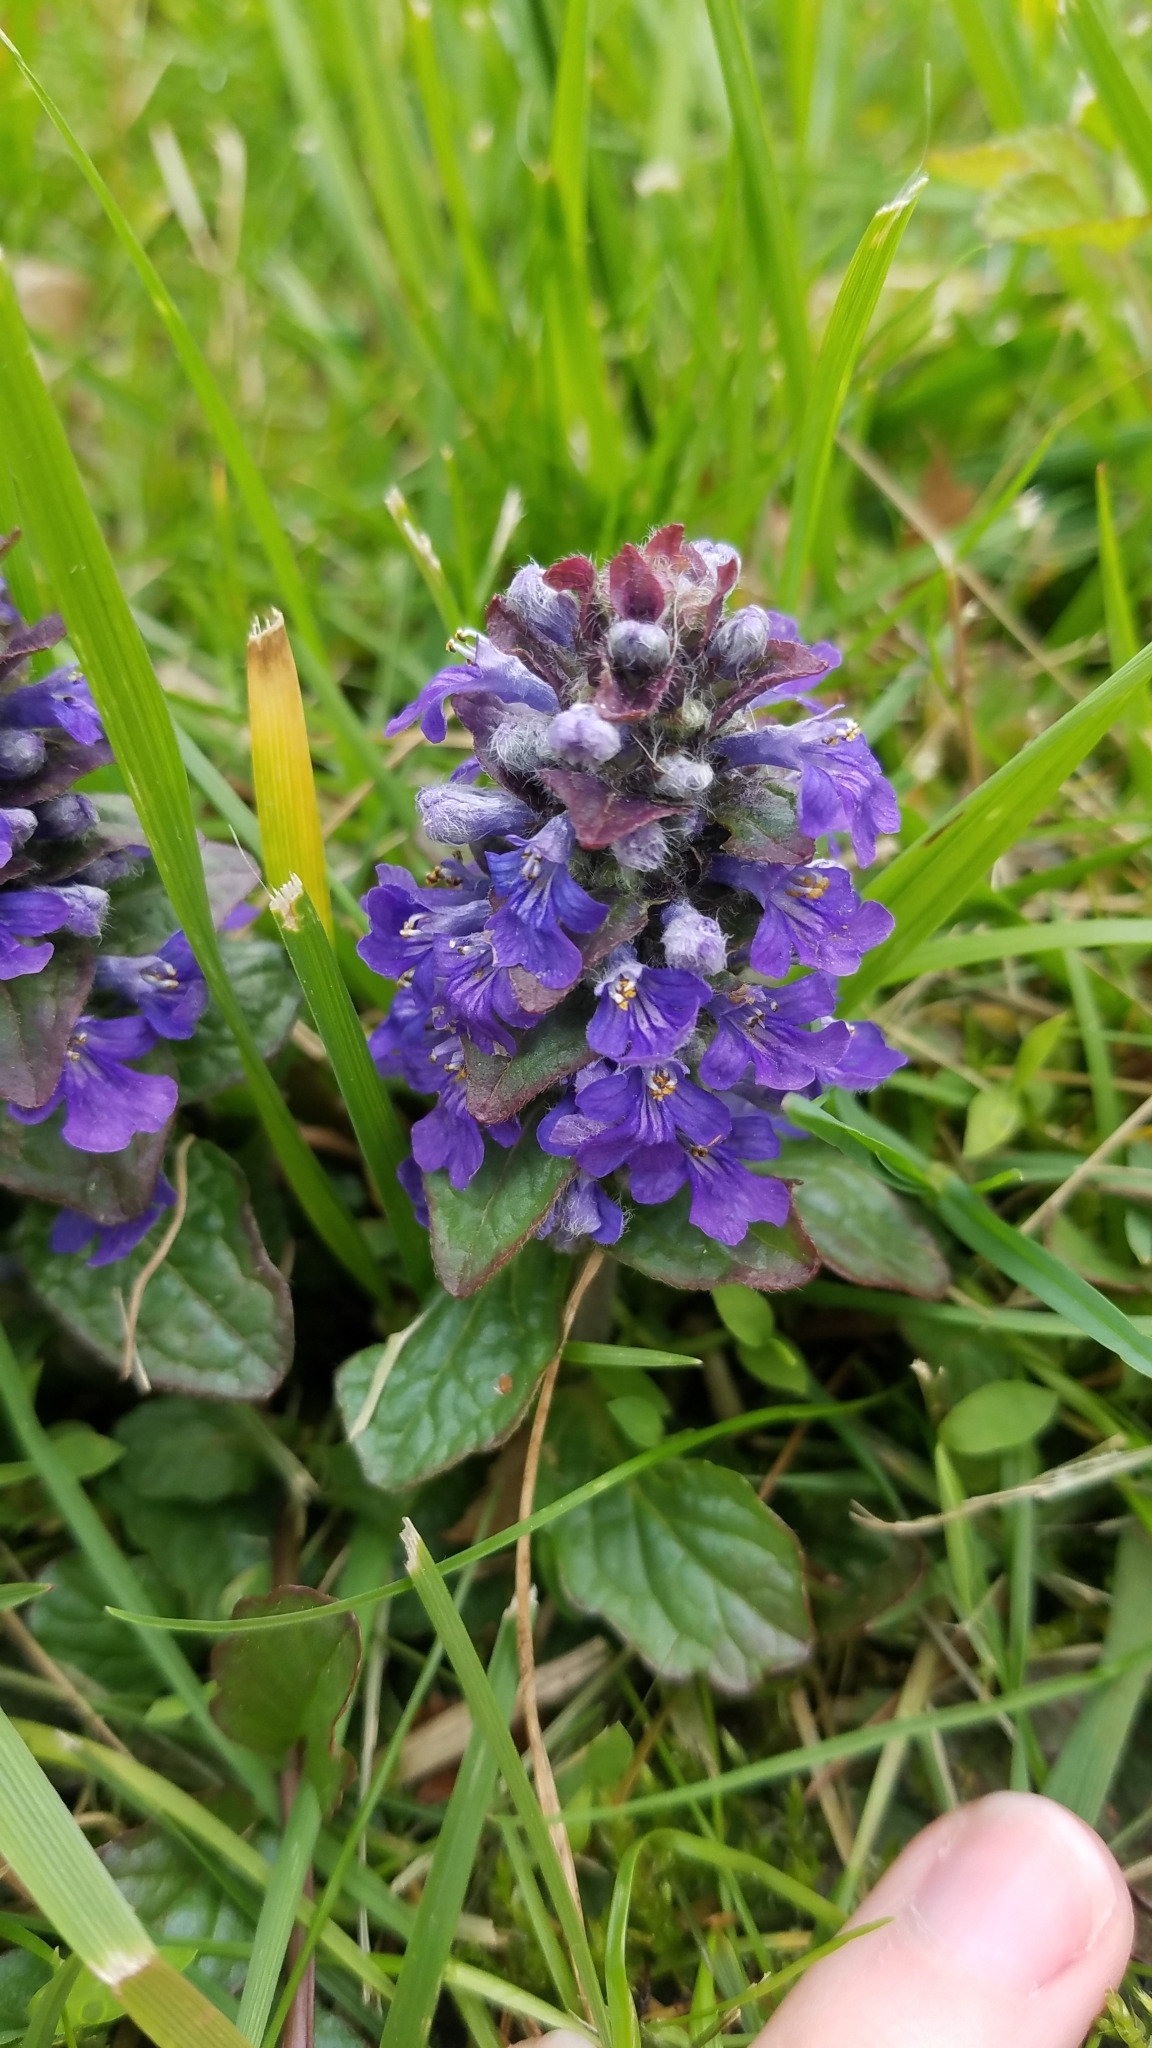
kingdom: Plantae
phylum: Tracheophyta
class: Magnoliopsida
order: Lamiales
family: Lamiaceae
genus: Ajuga
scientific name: Ajuga reptans
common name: Bugle
